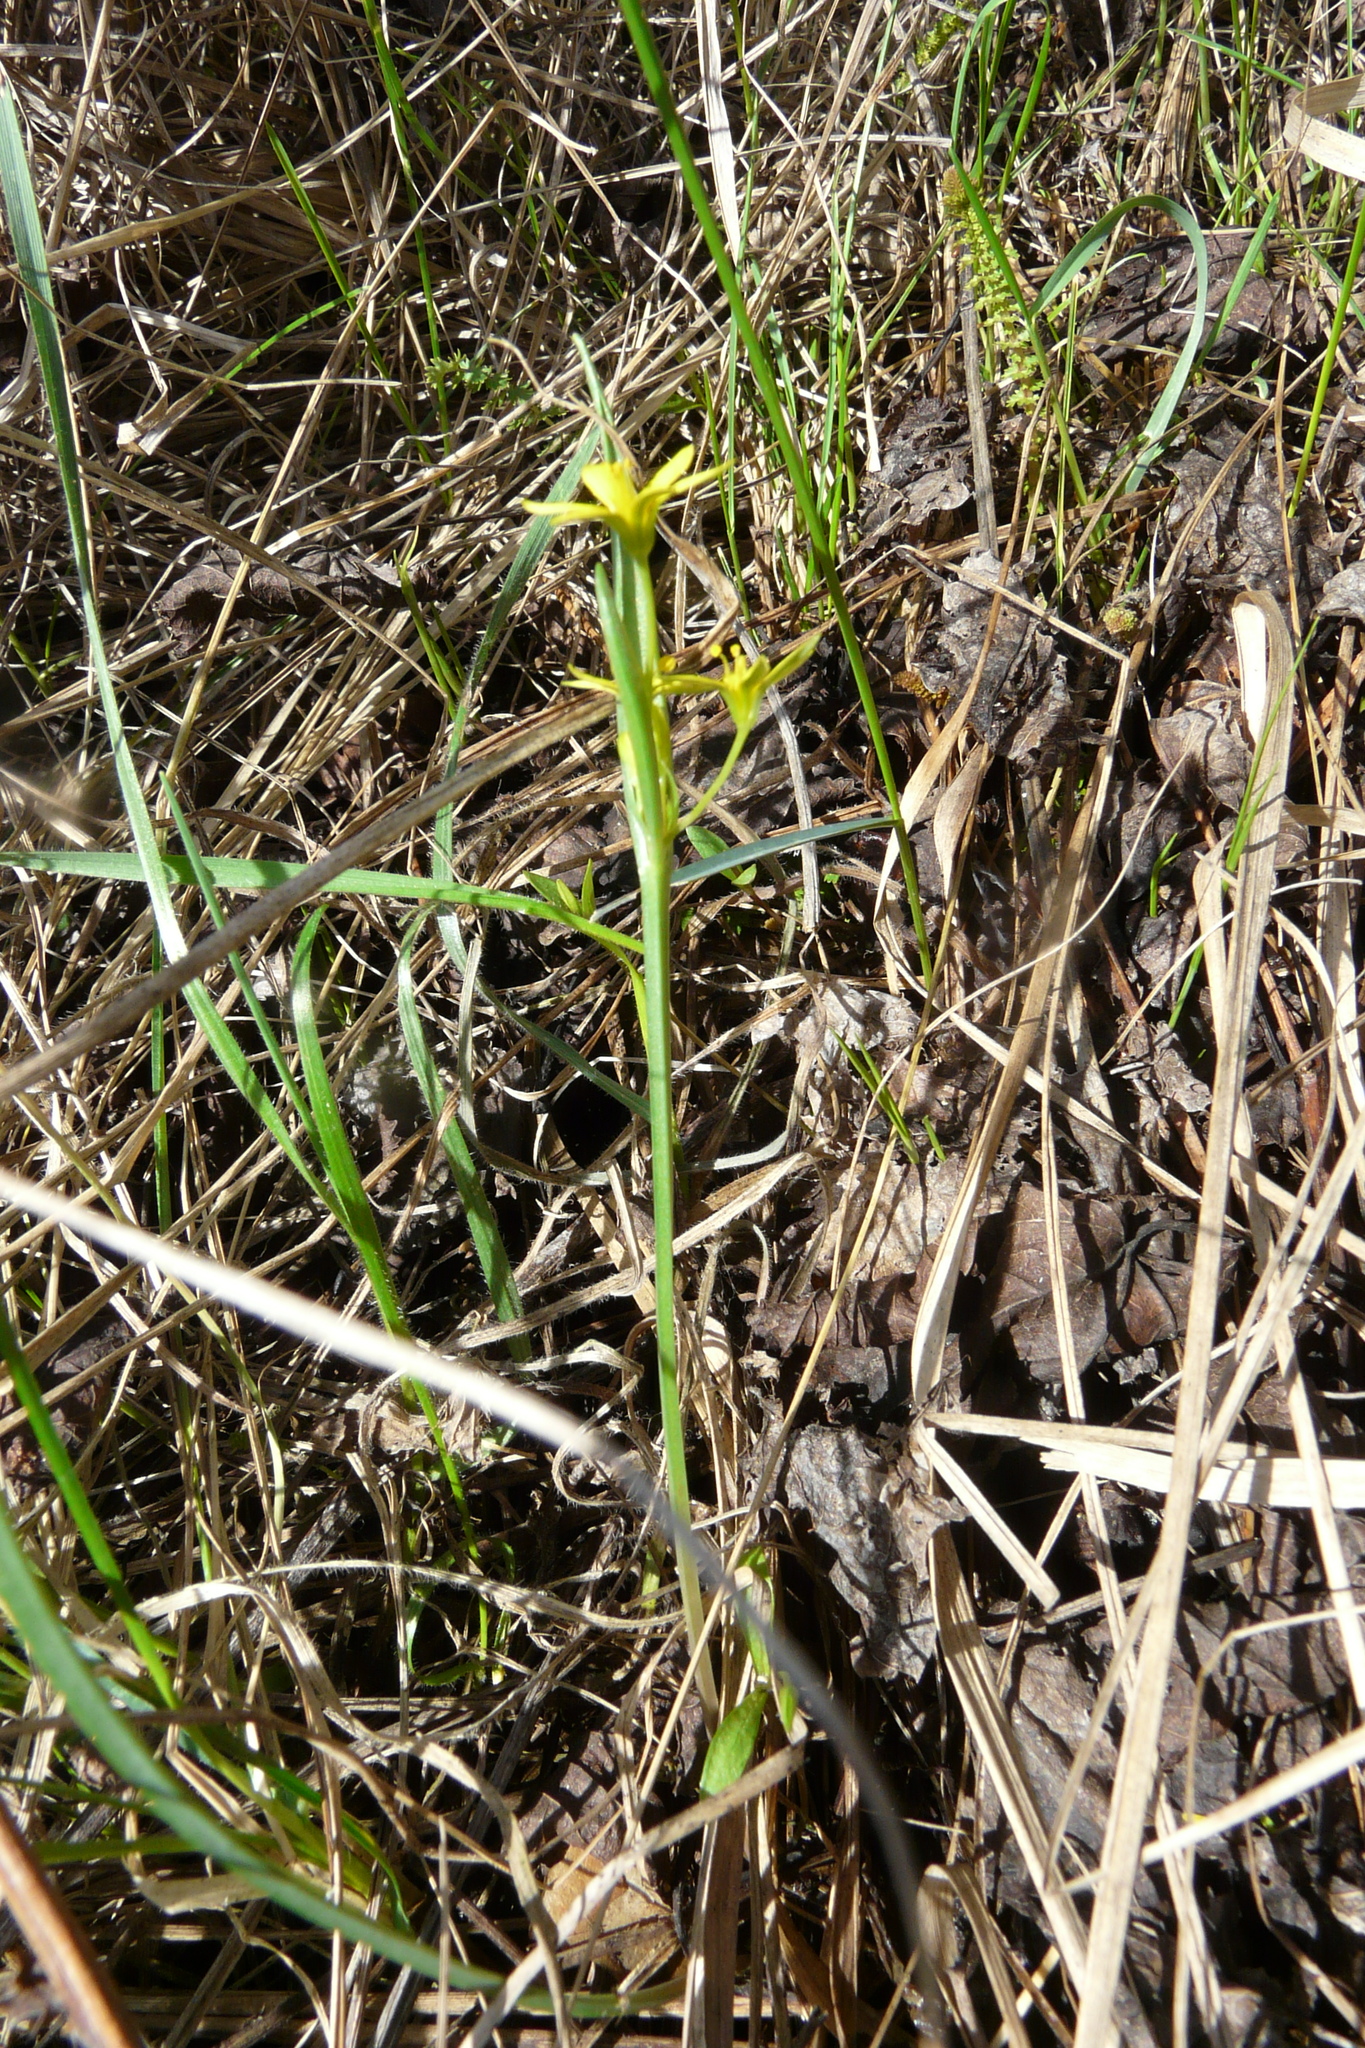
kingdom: Plantae
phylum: Tracheophyta
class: Liliopsida
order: Liliales
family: Liliaceae
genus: Fritillaria
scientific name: Fritillaria ruthenica
